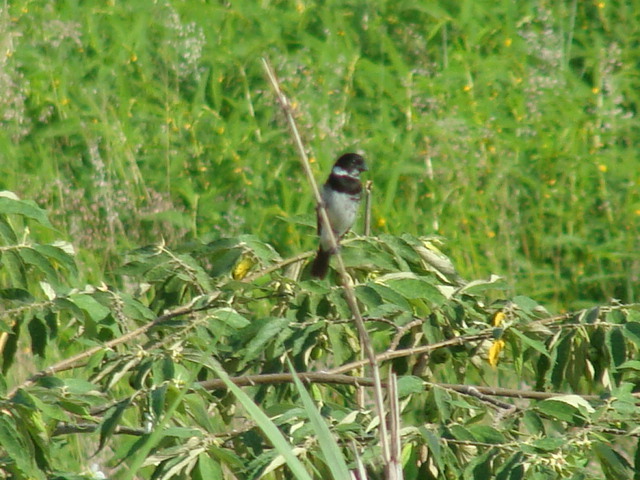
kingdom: Animalia
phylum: Chordata
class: Aves
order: Passeriformes
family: Thraupidae
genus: Sporophila
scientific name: Sporophila morelleti
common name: Morelet's seedeater
